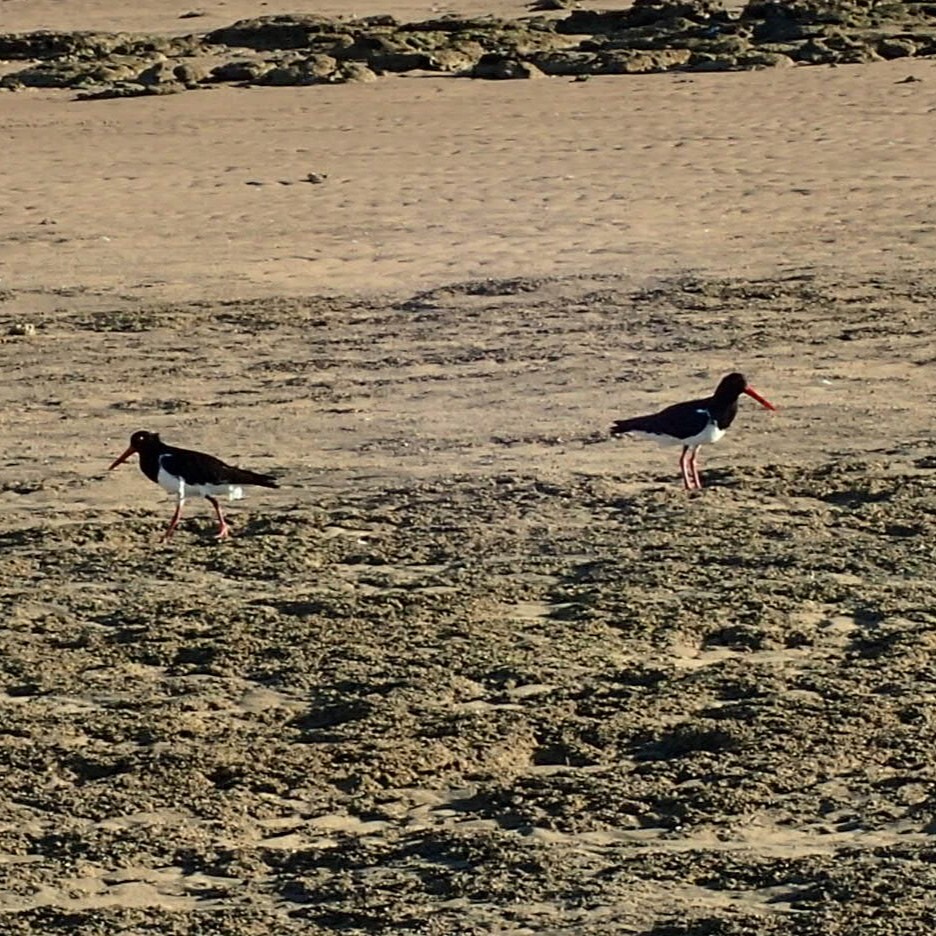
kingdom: Animalia
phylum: Chordata
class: Aves
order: Charadriiformes
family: Haematopodidae
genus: Haematopus
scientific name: Haematopus longirostris
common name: Pied oystercatcher
